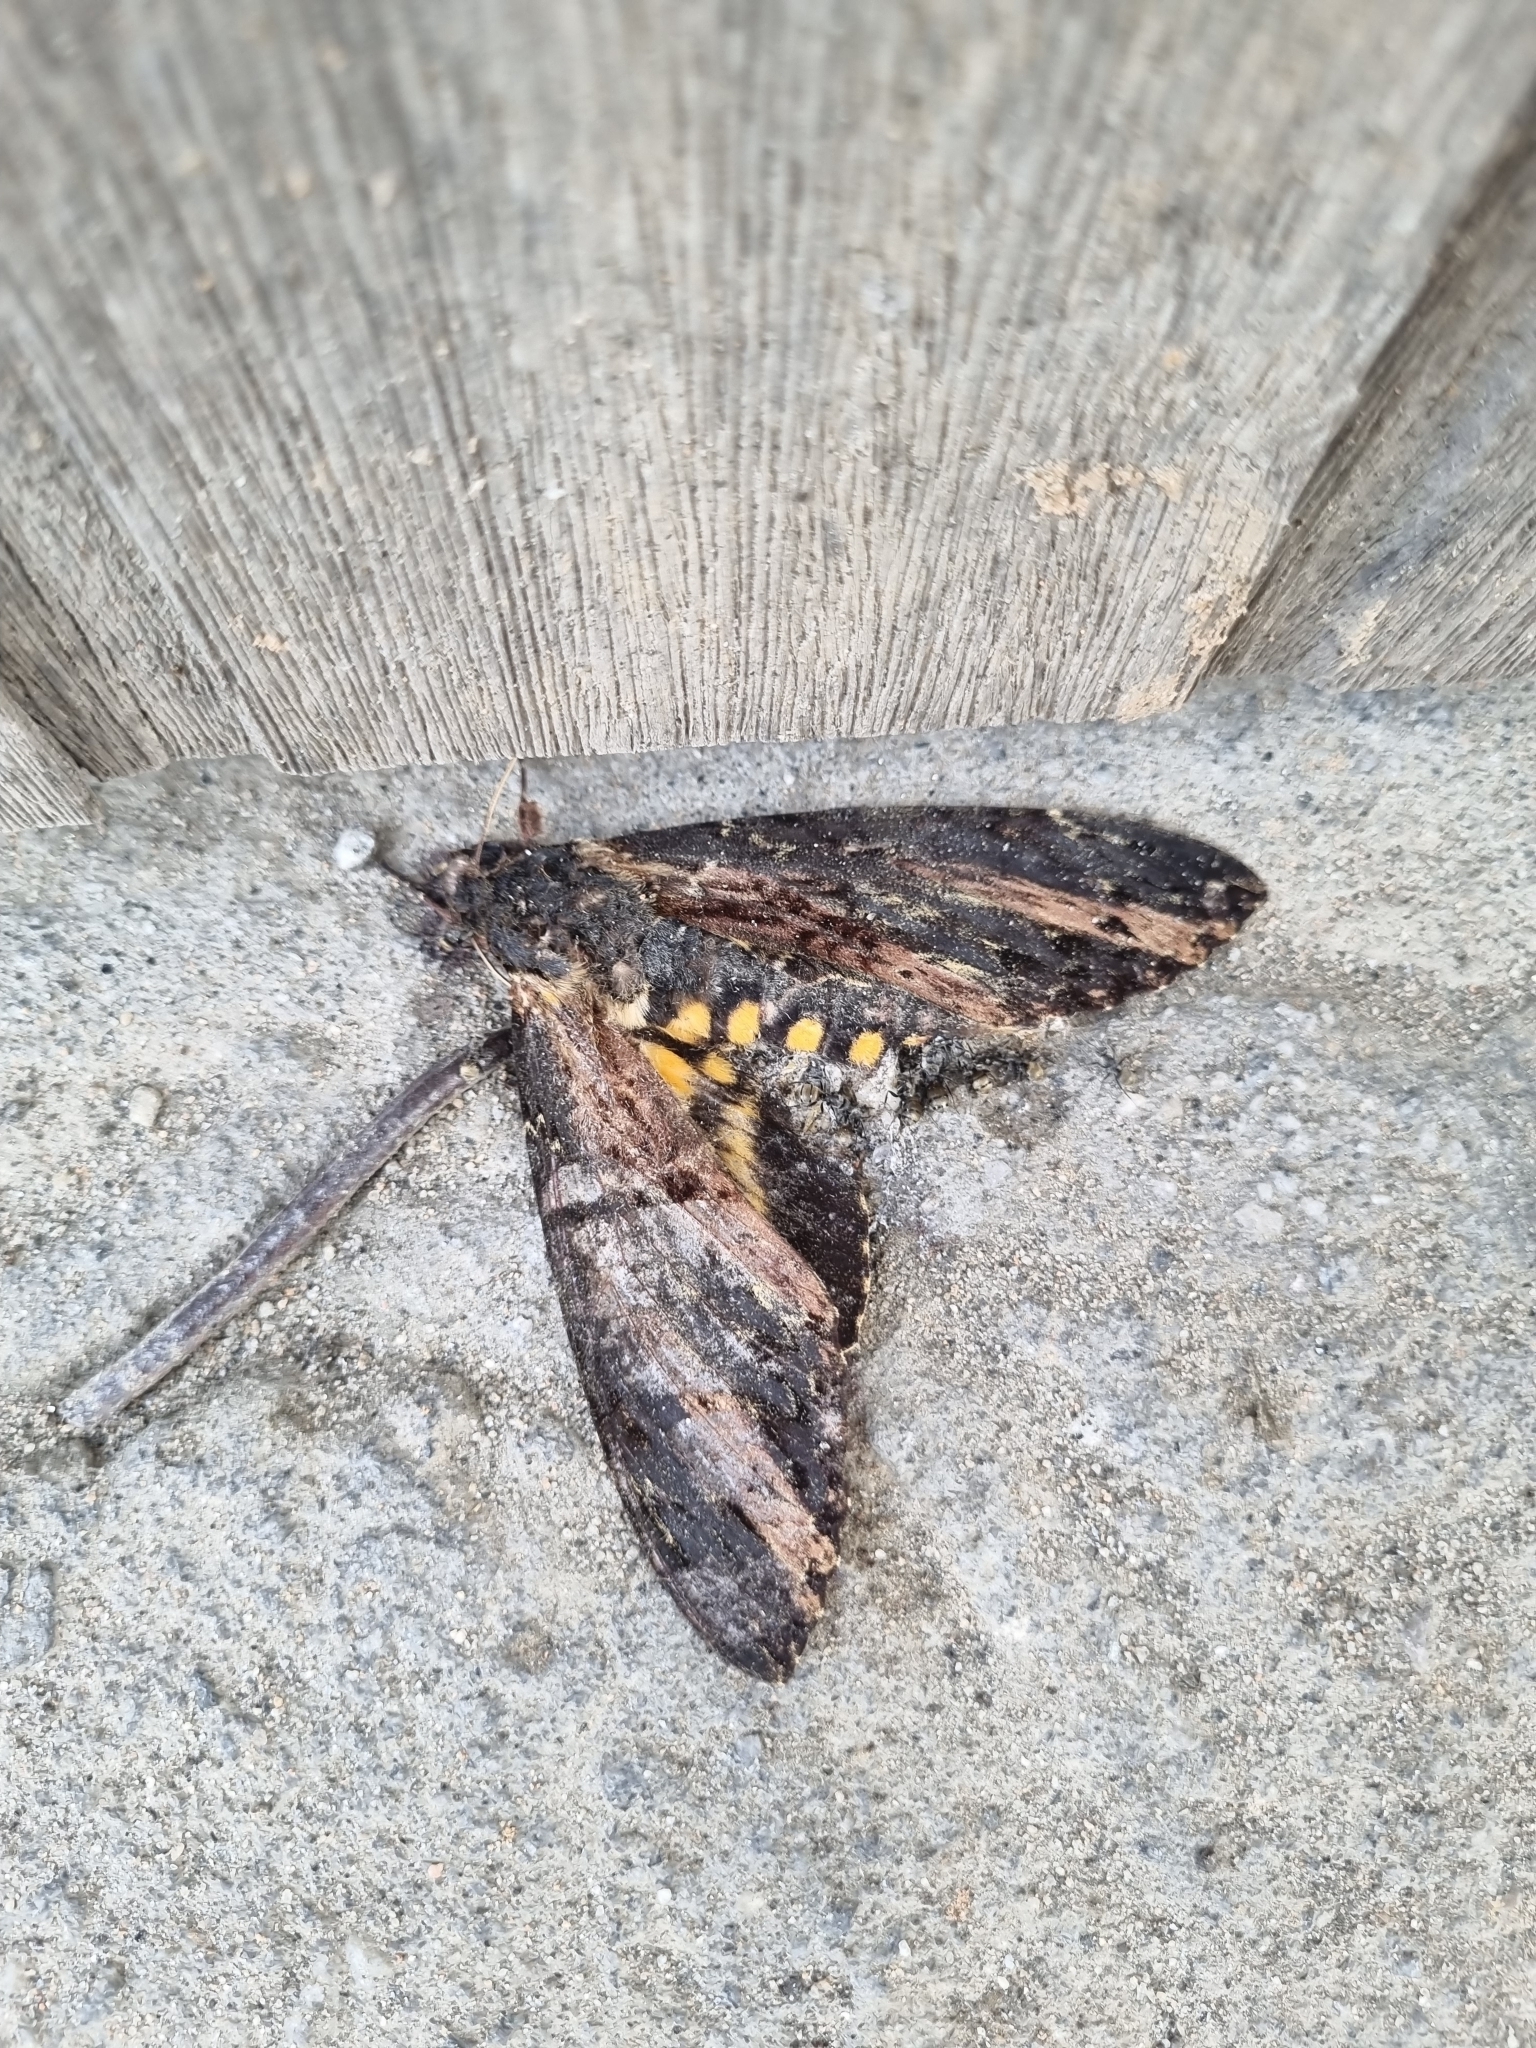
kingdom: Animalia
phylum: Arthropoda
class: Insecta
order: Lepidoptera
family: Sphingidae
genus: Neococytius
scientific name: Neococytius cluentius
